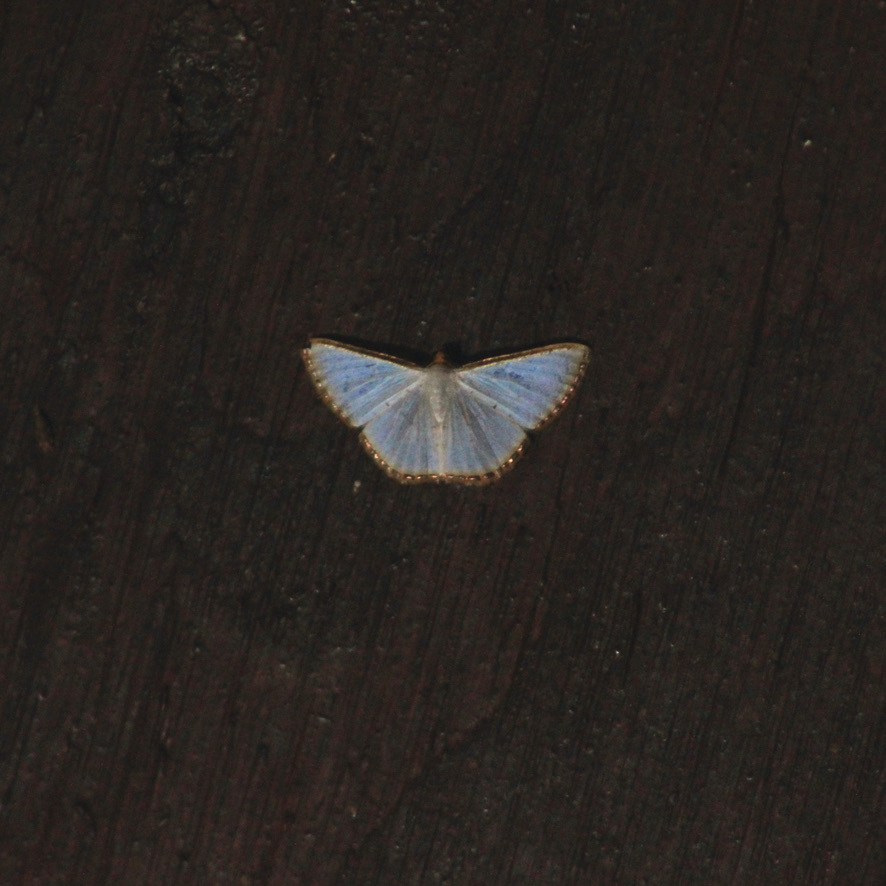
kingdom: Animalia
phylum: Arthropoda
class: Insecta
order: Lepidoptera
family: Geometridae
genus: Leuciris
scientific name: Leuciris fimbriaria
